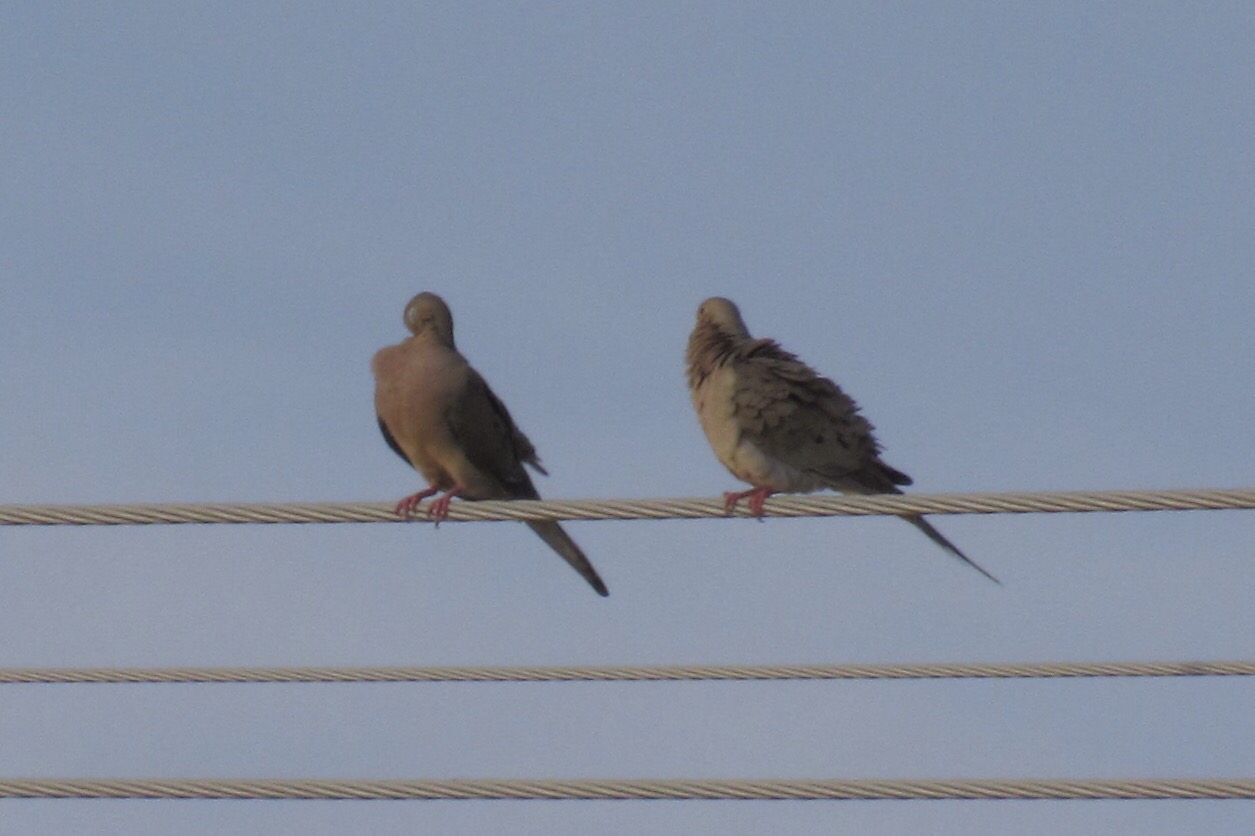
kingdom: Animalia
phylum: Chordata
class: Aves
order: Columbiformes
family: Columbidae
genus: Zenaida
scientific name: Zenaida macroura
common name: Mourning dove
